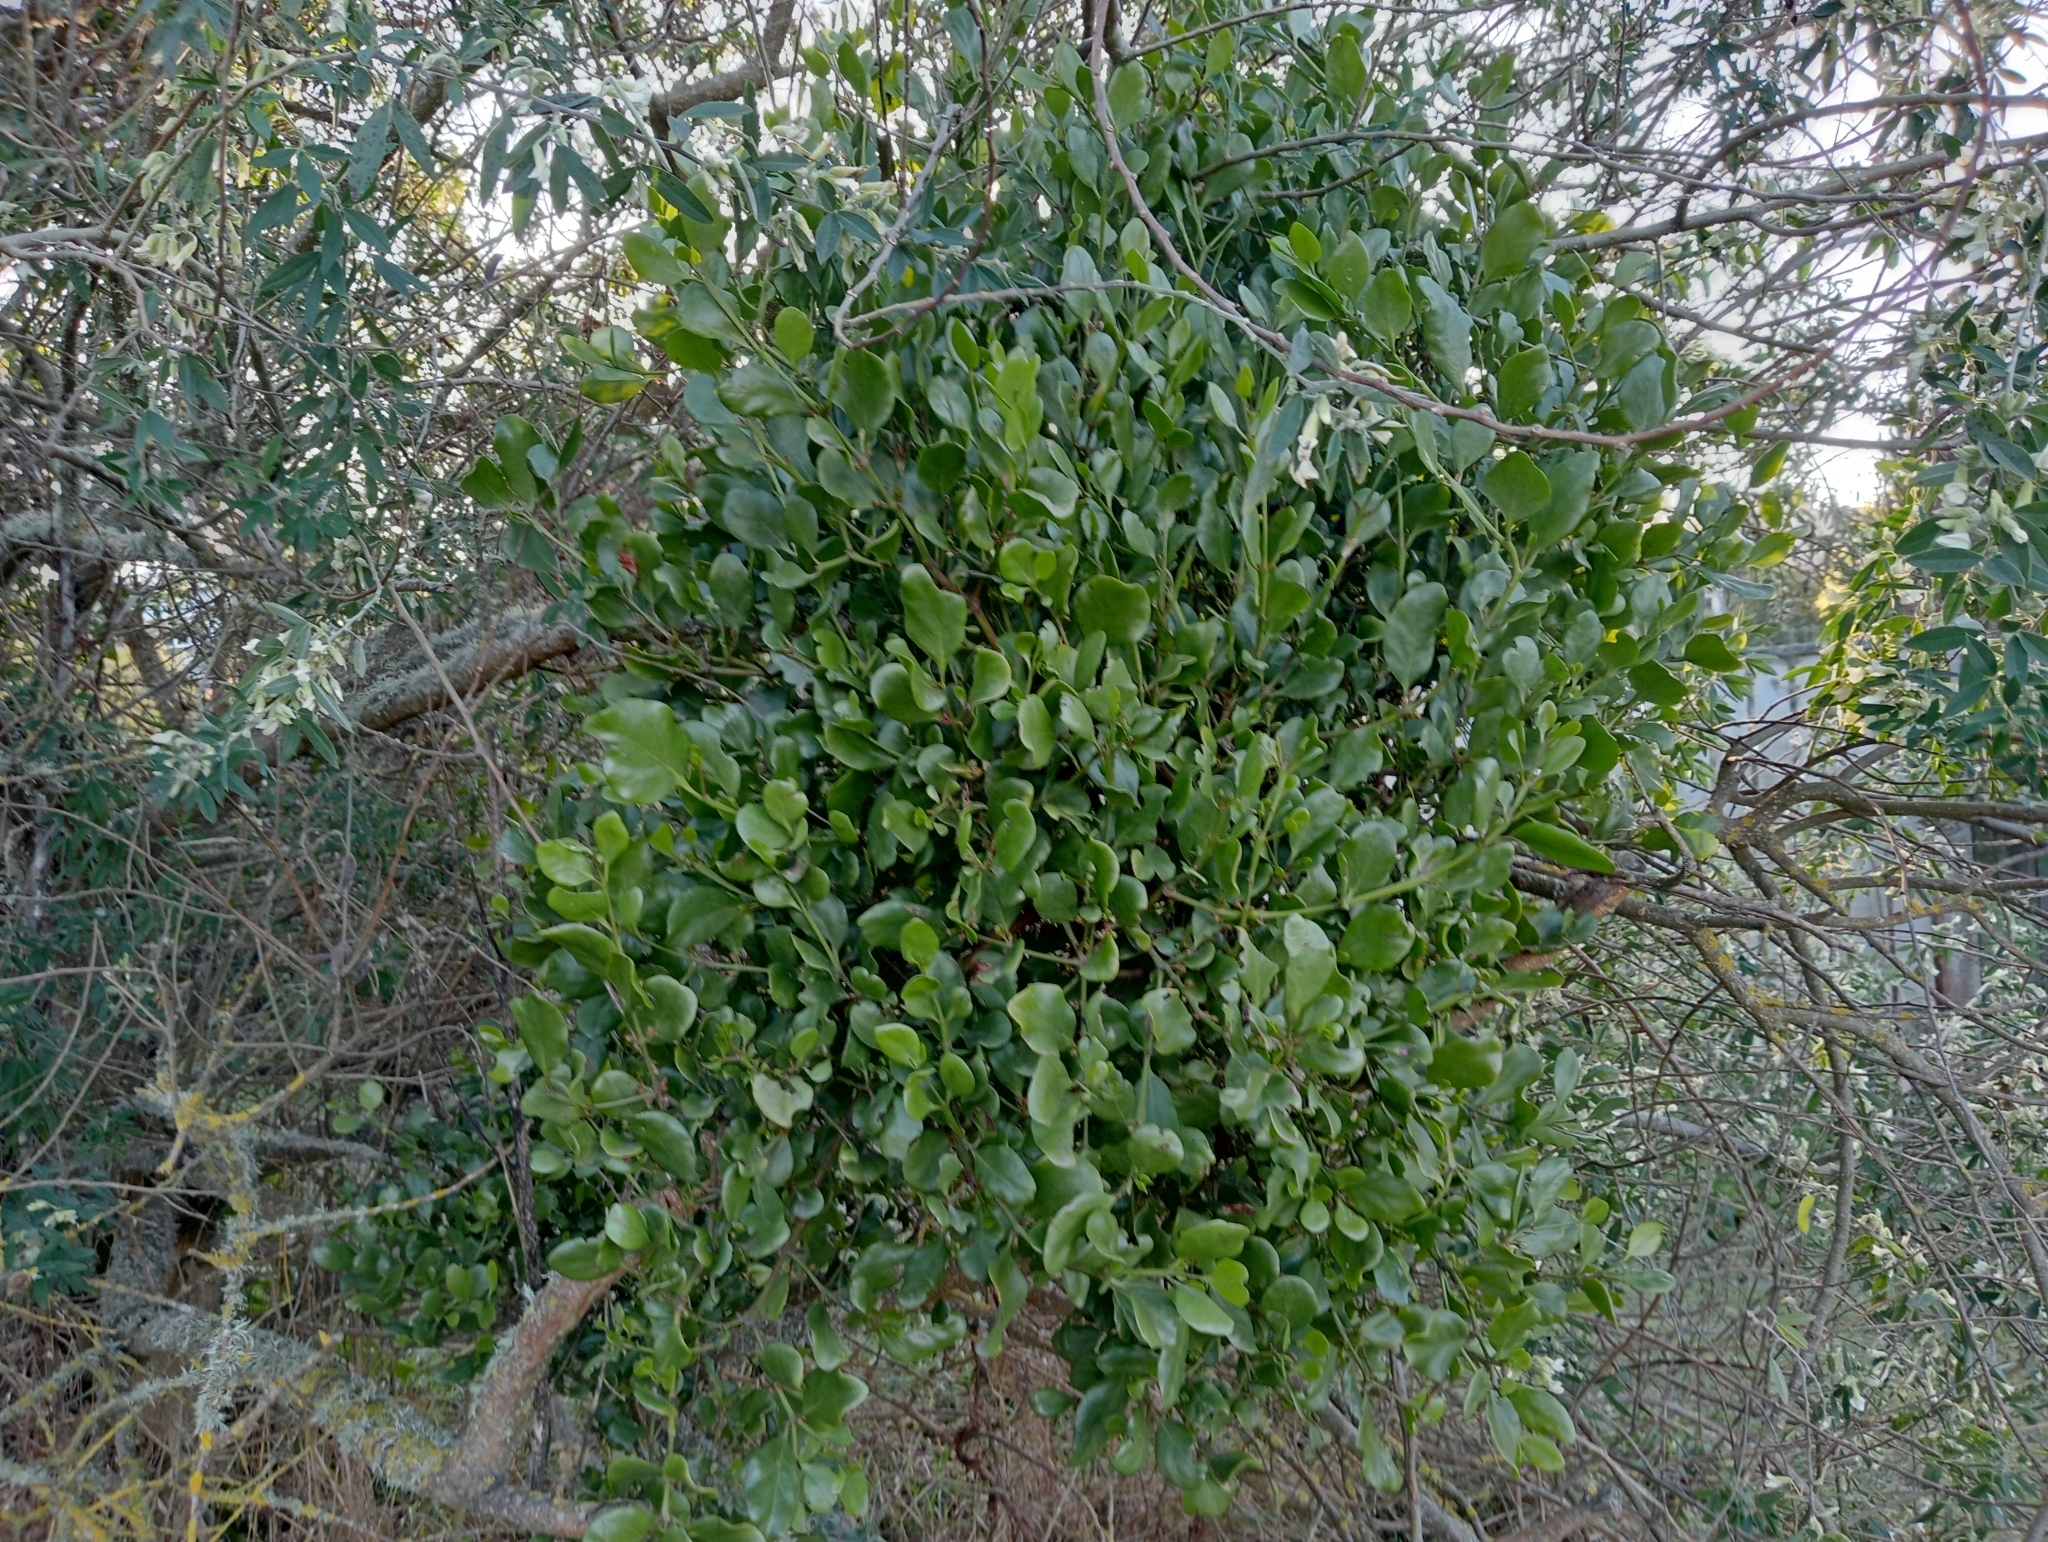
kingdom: Plantae
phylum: Tracheophyta
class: Magnoliopsida
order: Santalales
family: Loranthaceae
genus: Ileostylus
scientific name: Ileostylus micranthus
